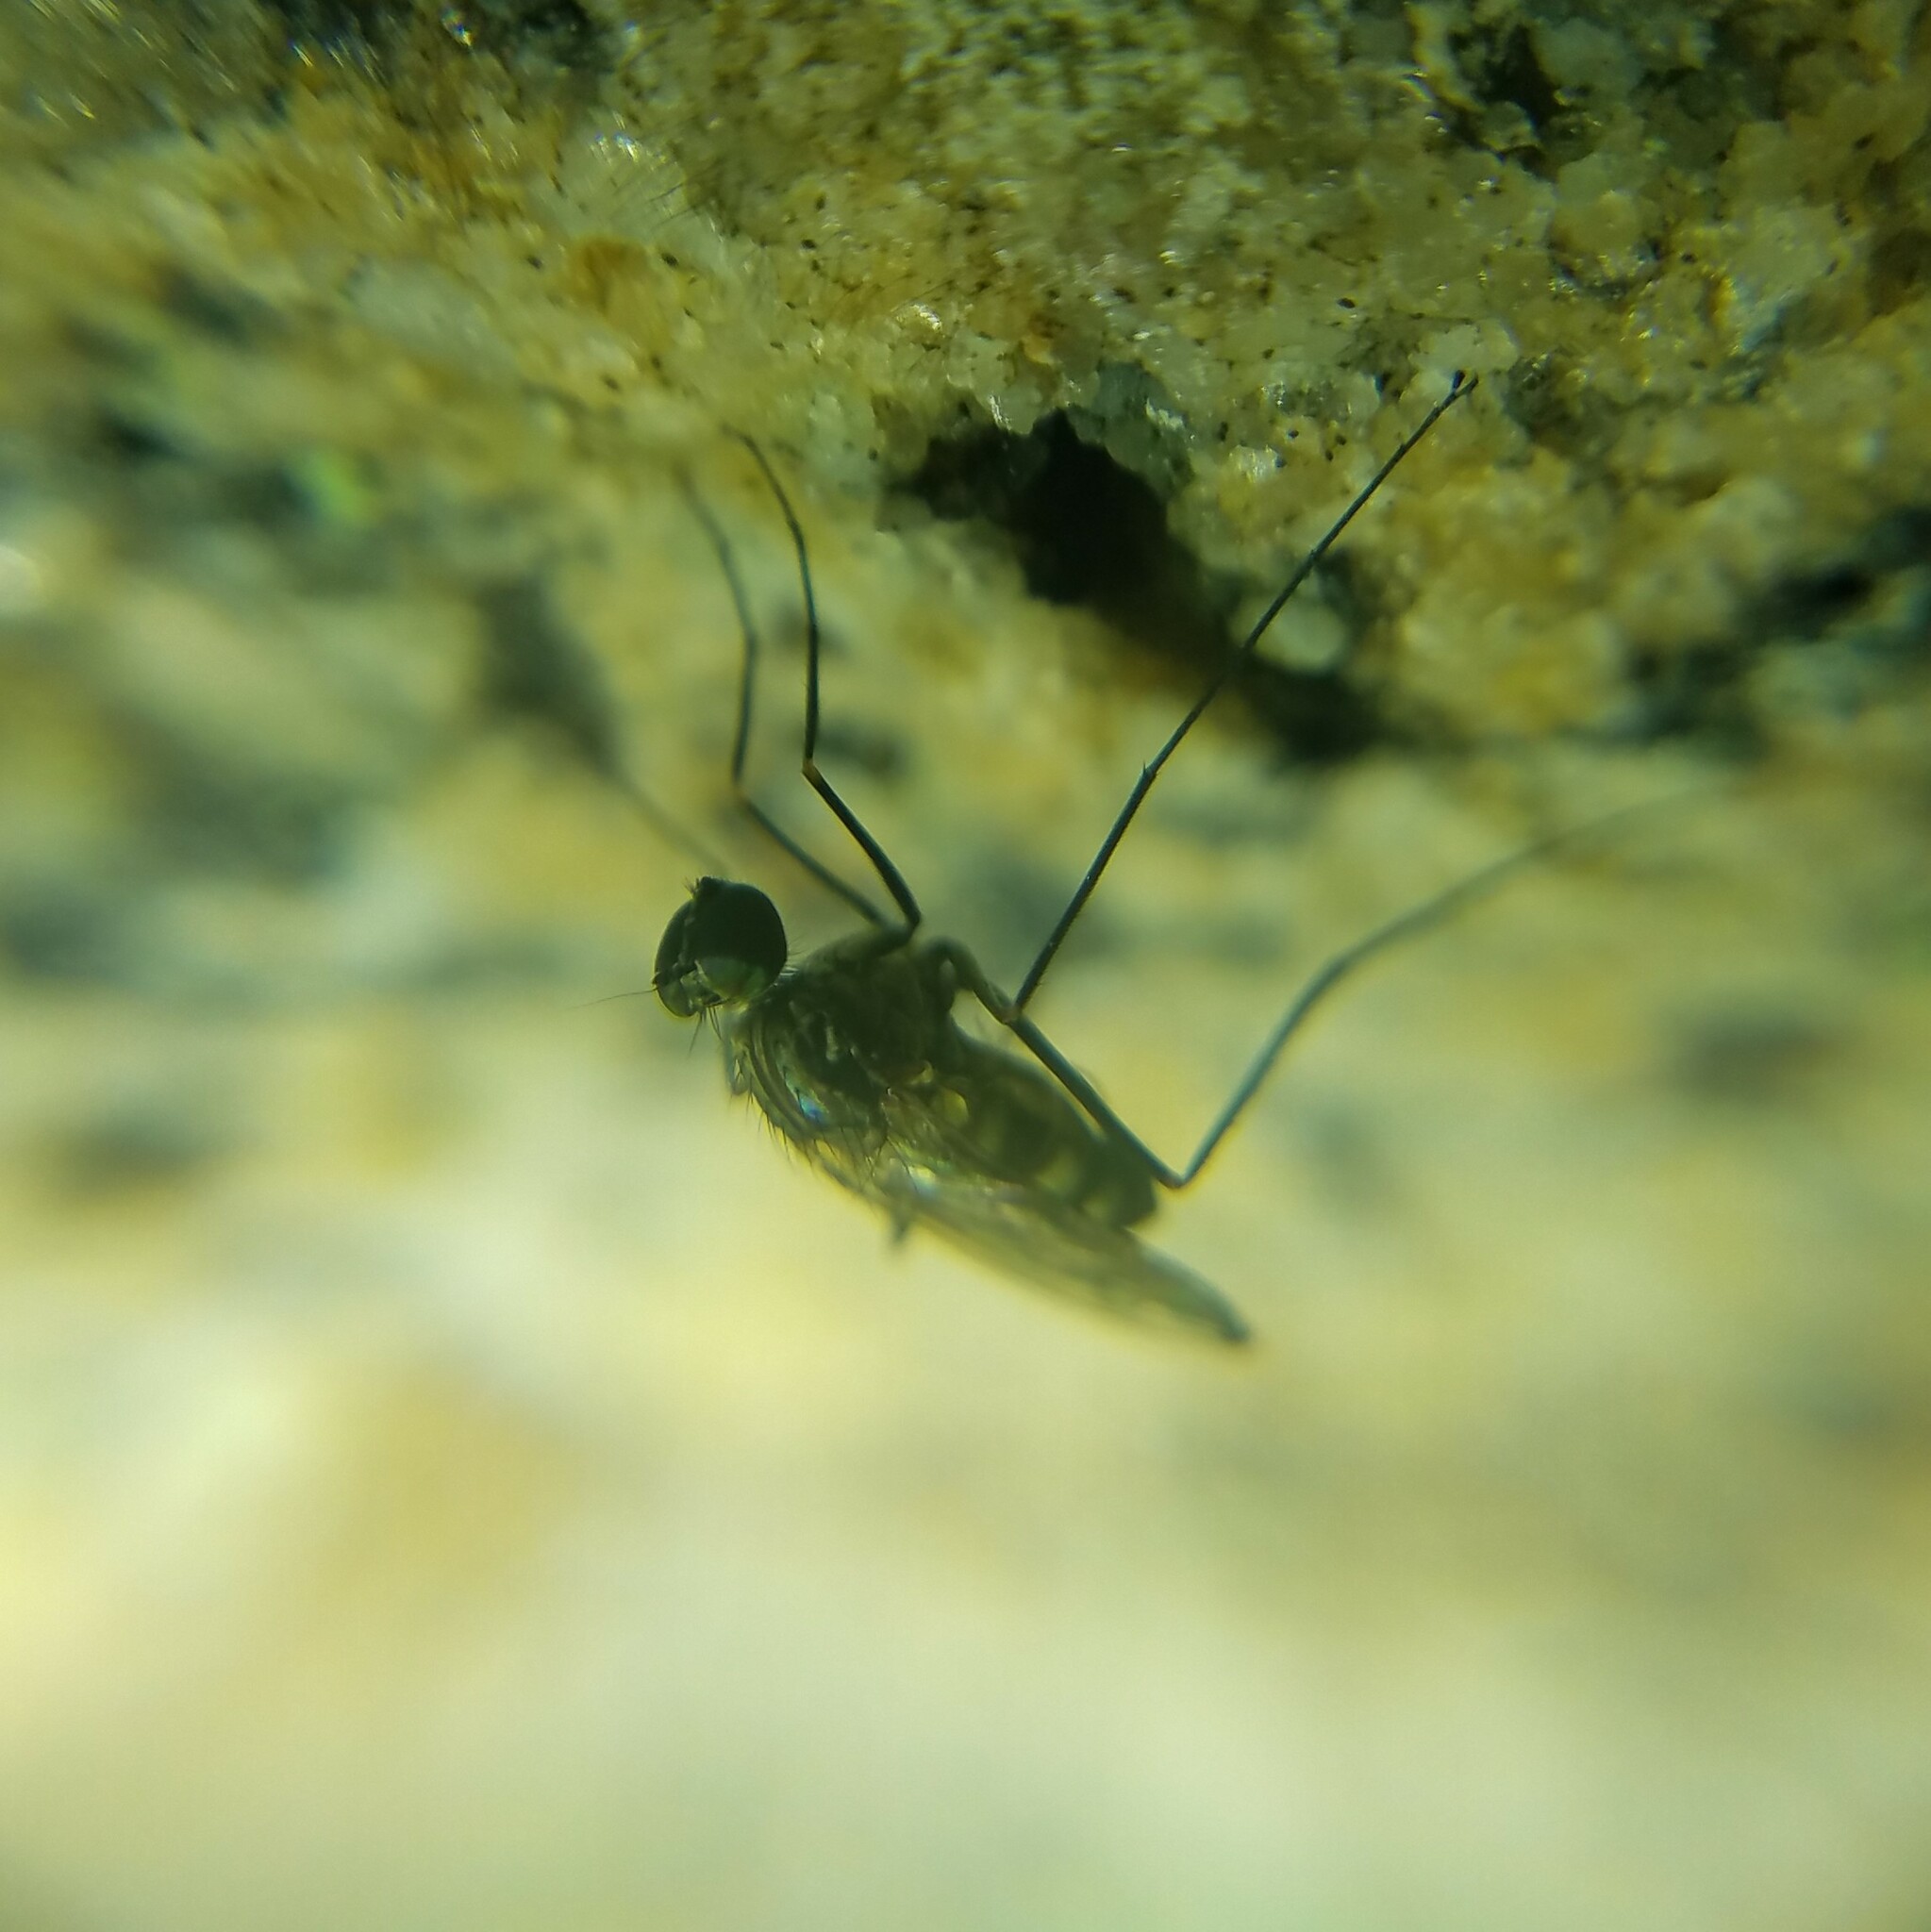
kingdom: Animalia
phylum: Arthropoda
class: Insecta
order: Diptera
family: Dolichopodidae
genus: Liancalus
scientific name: Liancalus genualis
